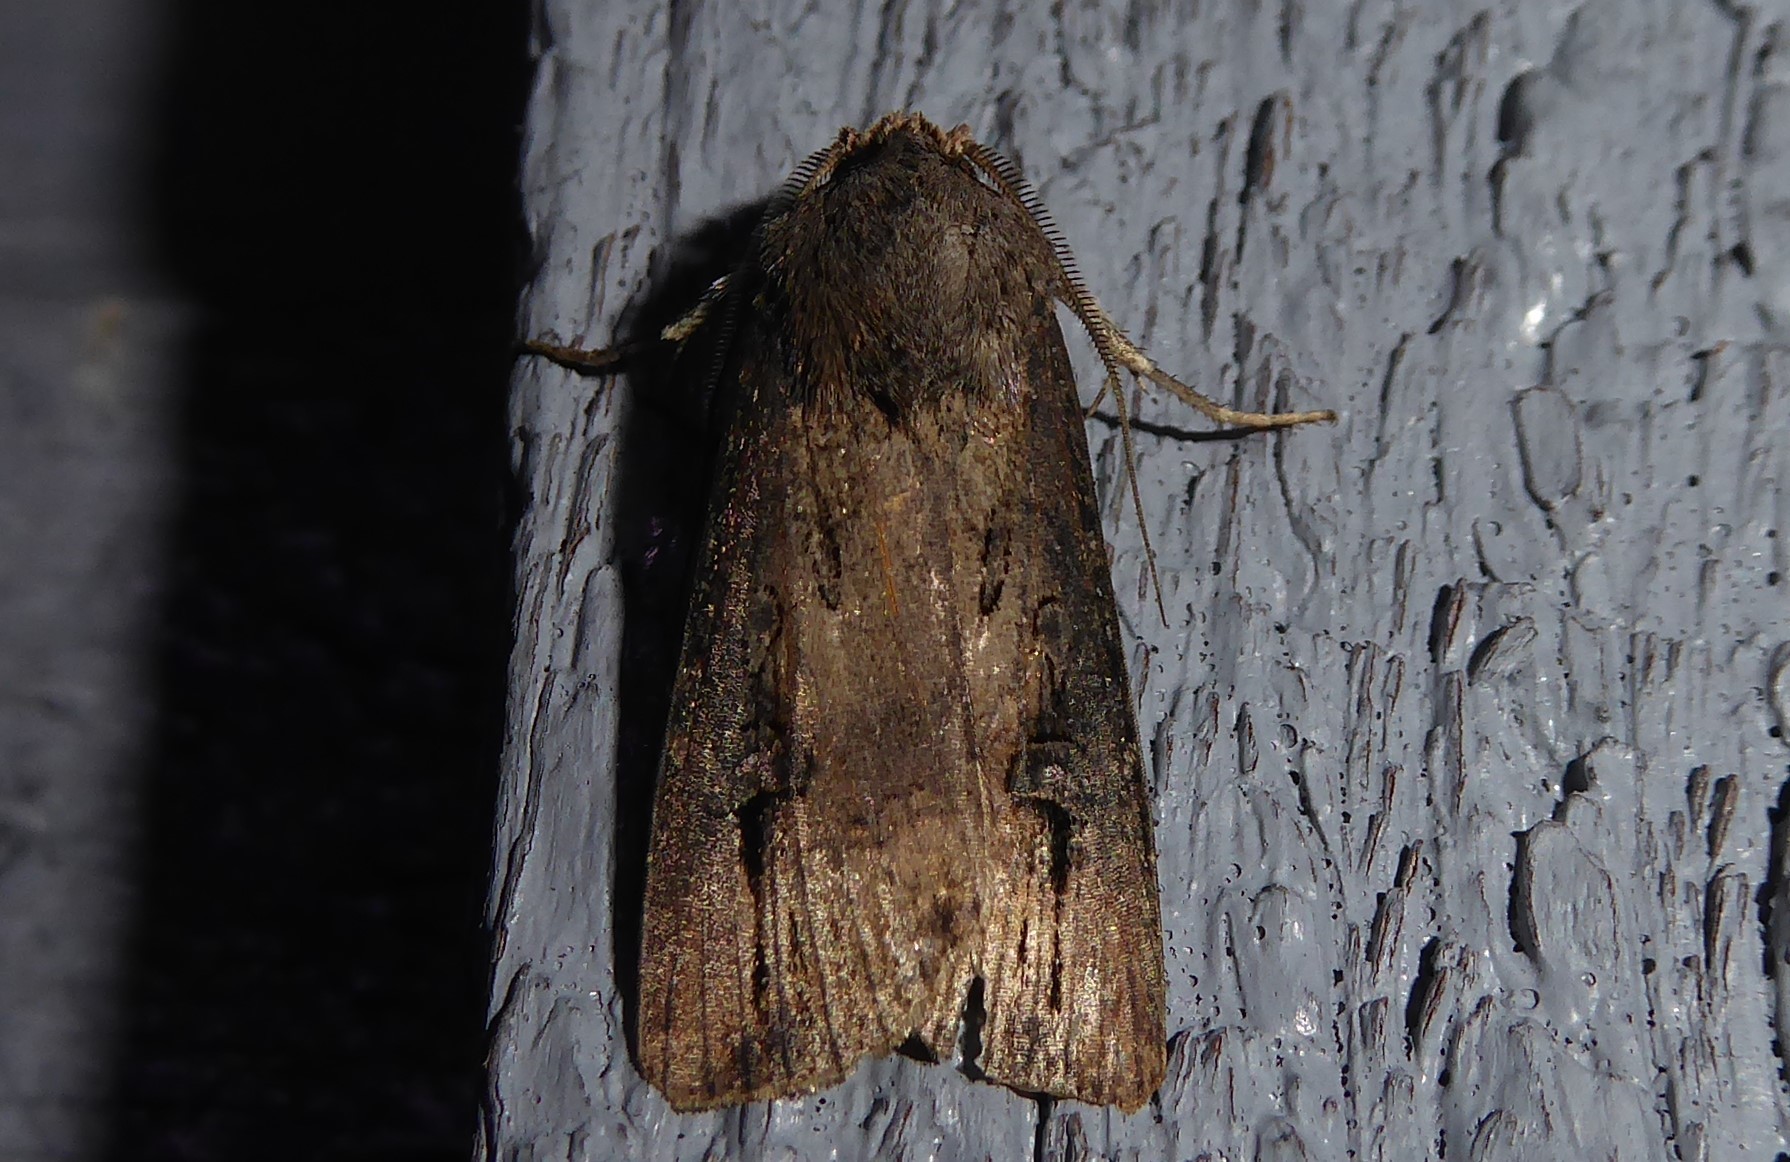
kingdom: Animalia
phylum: Arthropoda
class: Insecta
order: Lepidoptera
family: Noctuidae
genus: Agrotis
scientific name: Agrotis ipsilon
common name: Dark sword-grass
